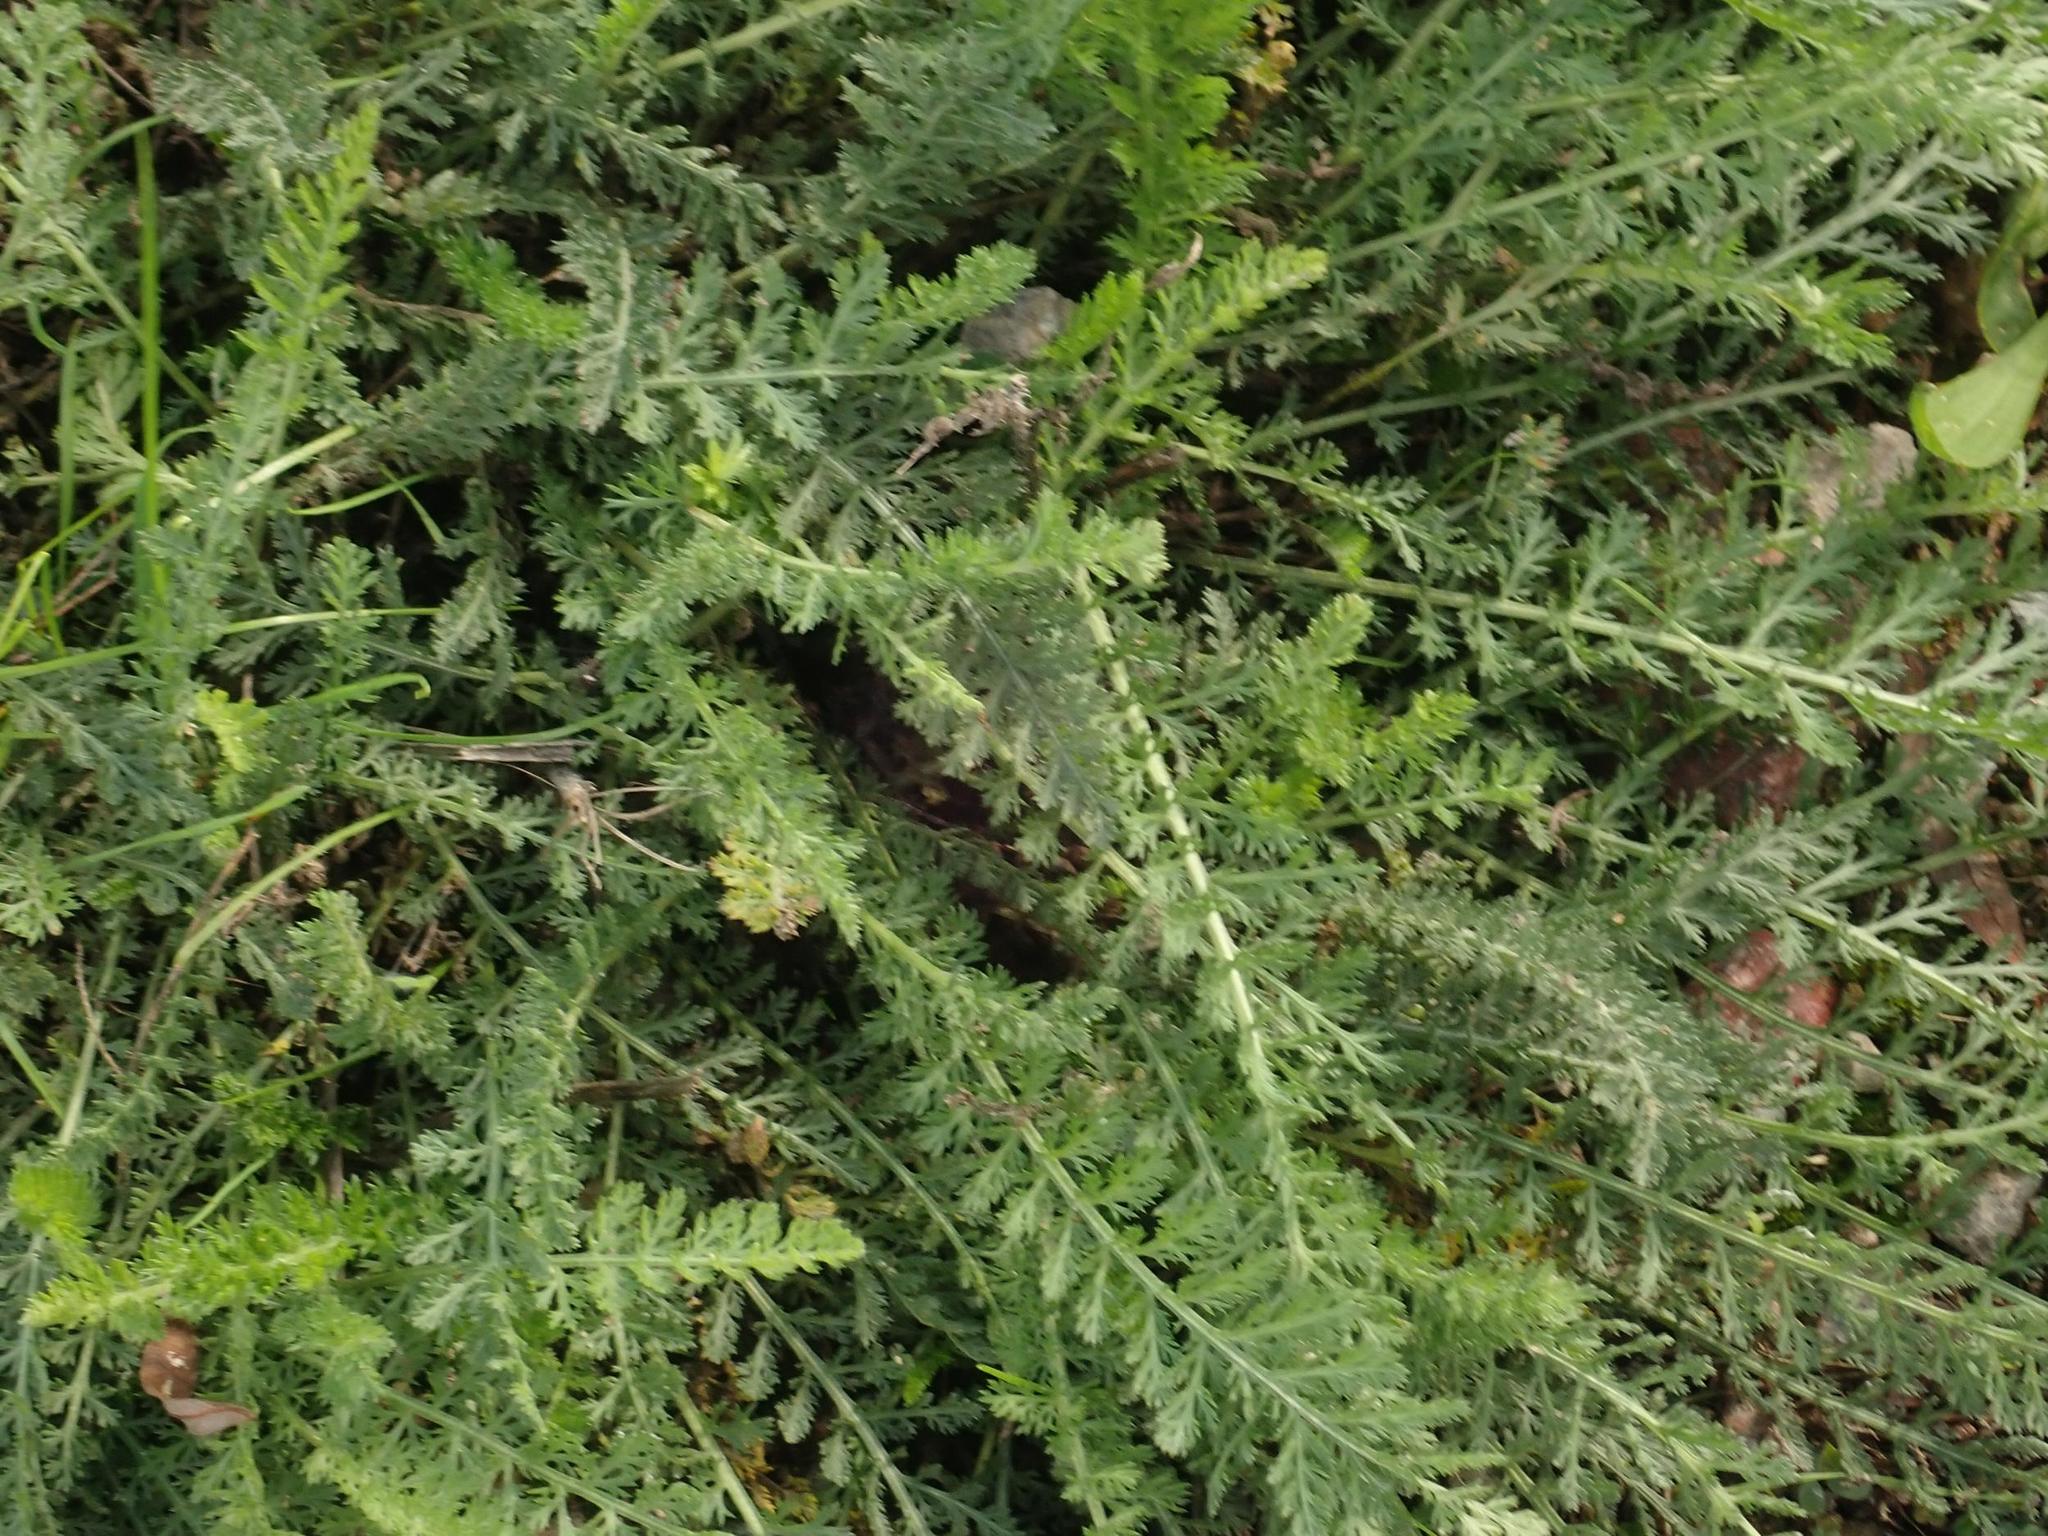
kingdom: Plantae
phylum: Tracheophyta
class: Magnoliopsida
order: Asterales
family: Asteraceae
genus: Achillea
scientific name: Achillea millefolium
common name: Yarrow
